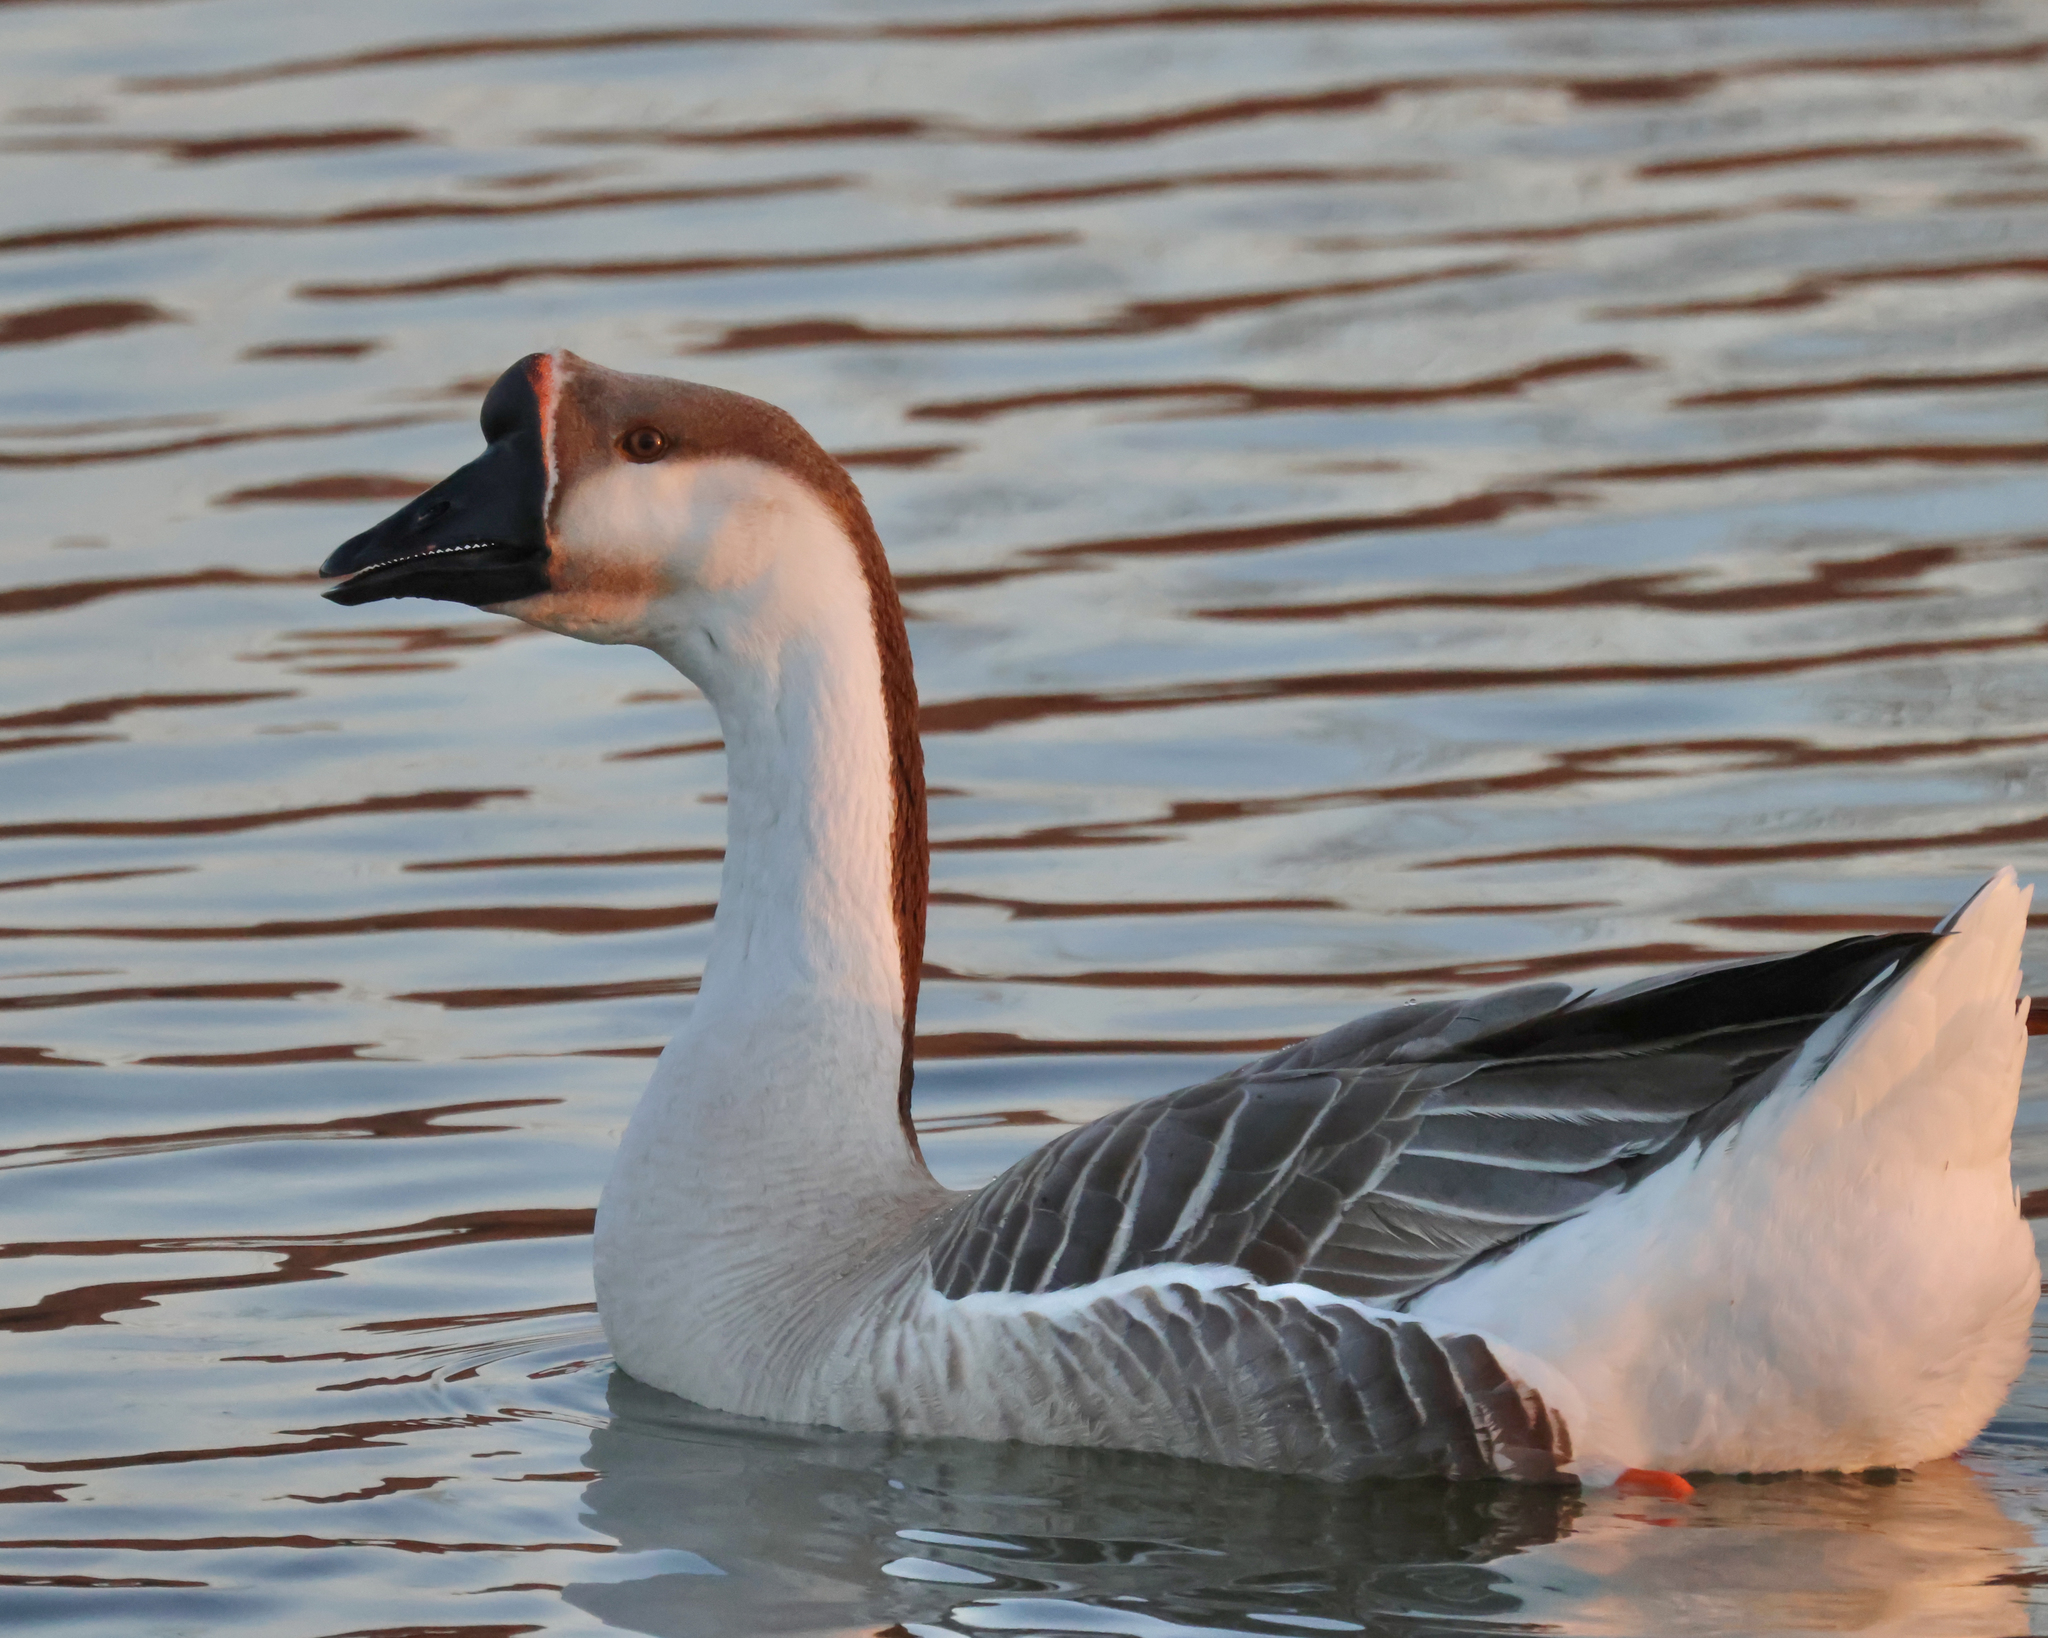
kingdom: Animalia
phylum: Chordata
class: Aves
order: Anseriformes
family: Anatidae
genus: Anser
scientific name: Anser cygnoides
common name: Swan goose
